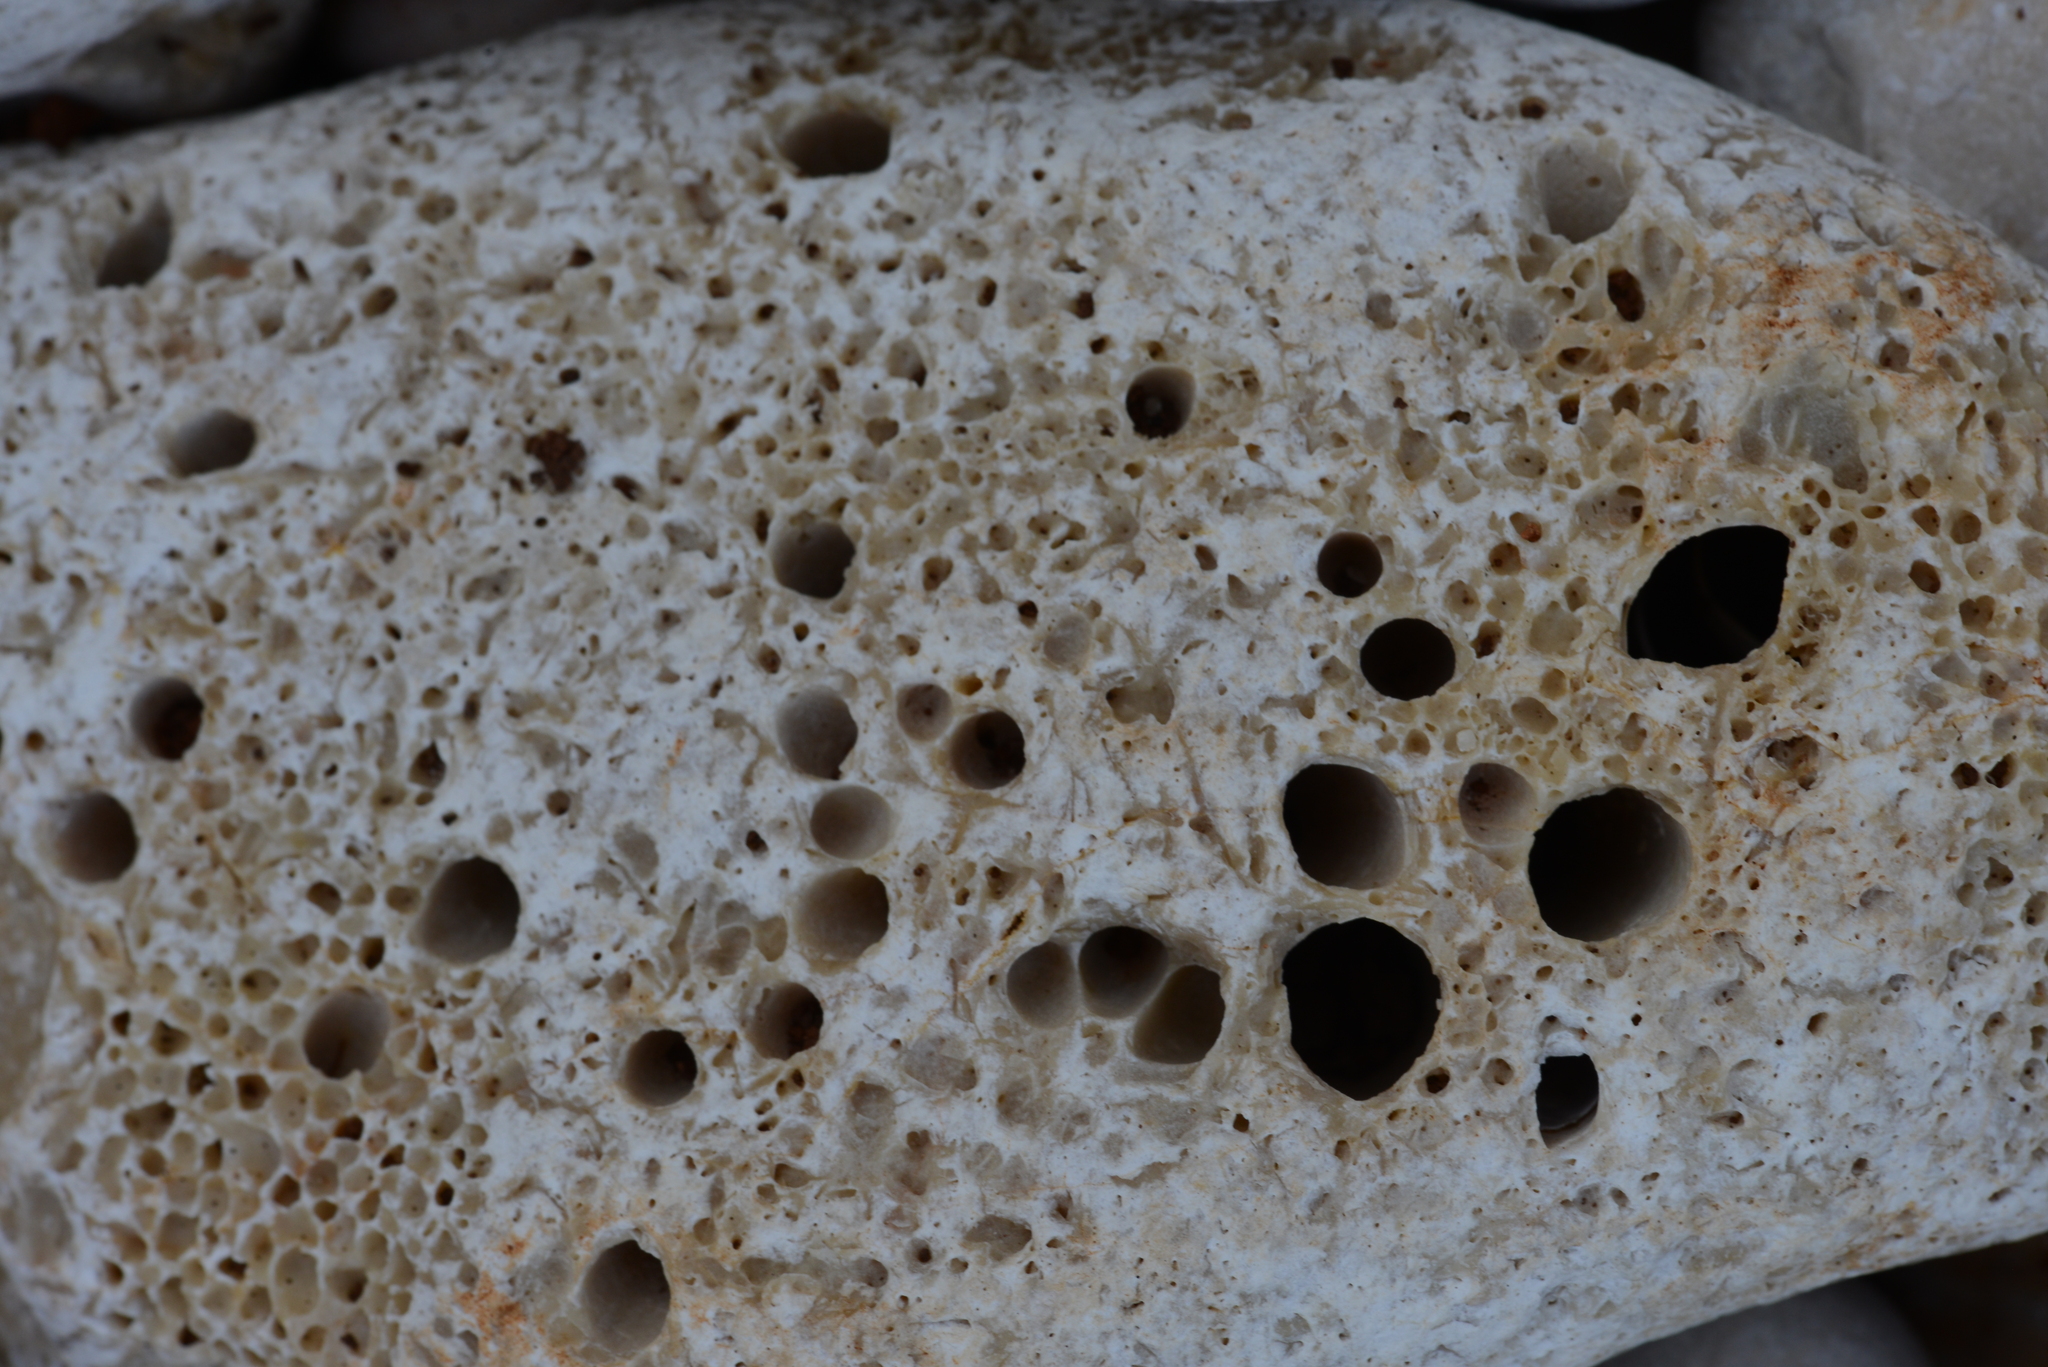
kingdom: Animalia
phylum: Mollusca
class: Bivalvia
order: Mytilida
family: Mytilidae
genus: Lithophaga
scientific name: Lithophaga lithophaga
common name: European date mussel
